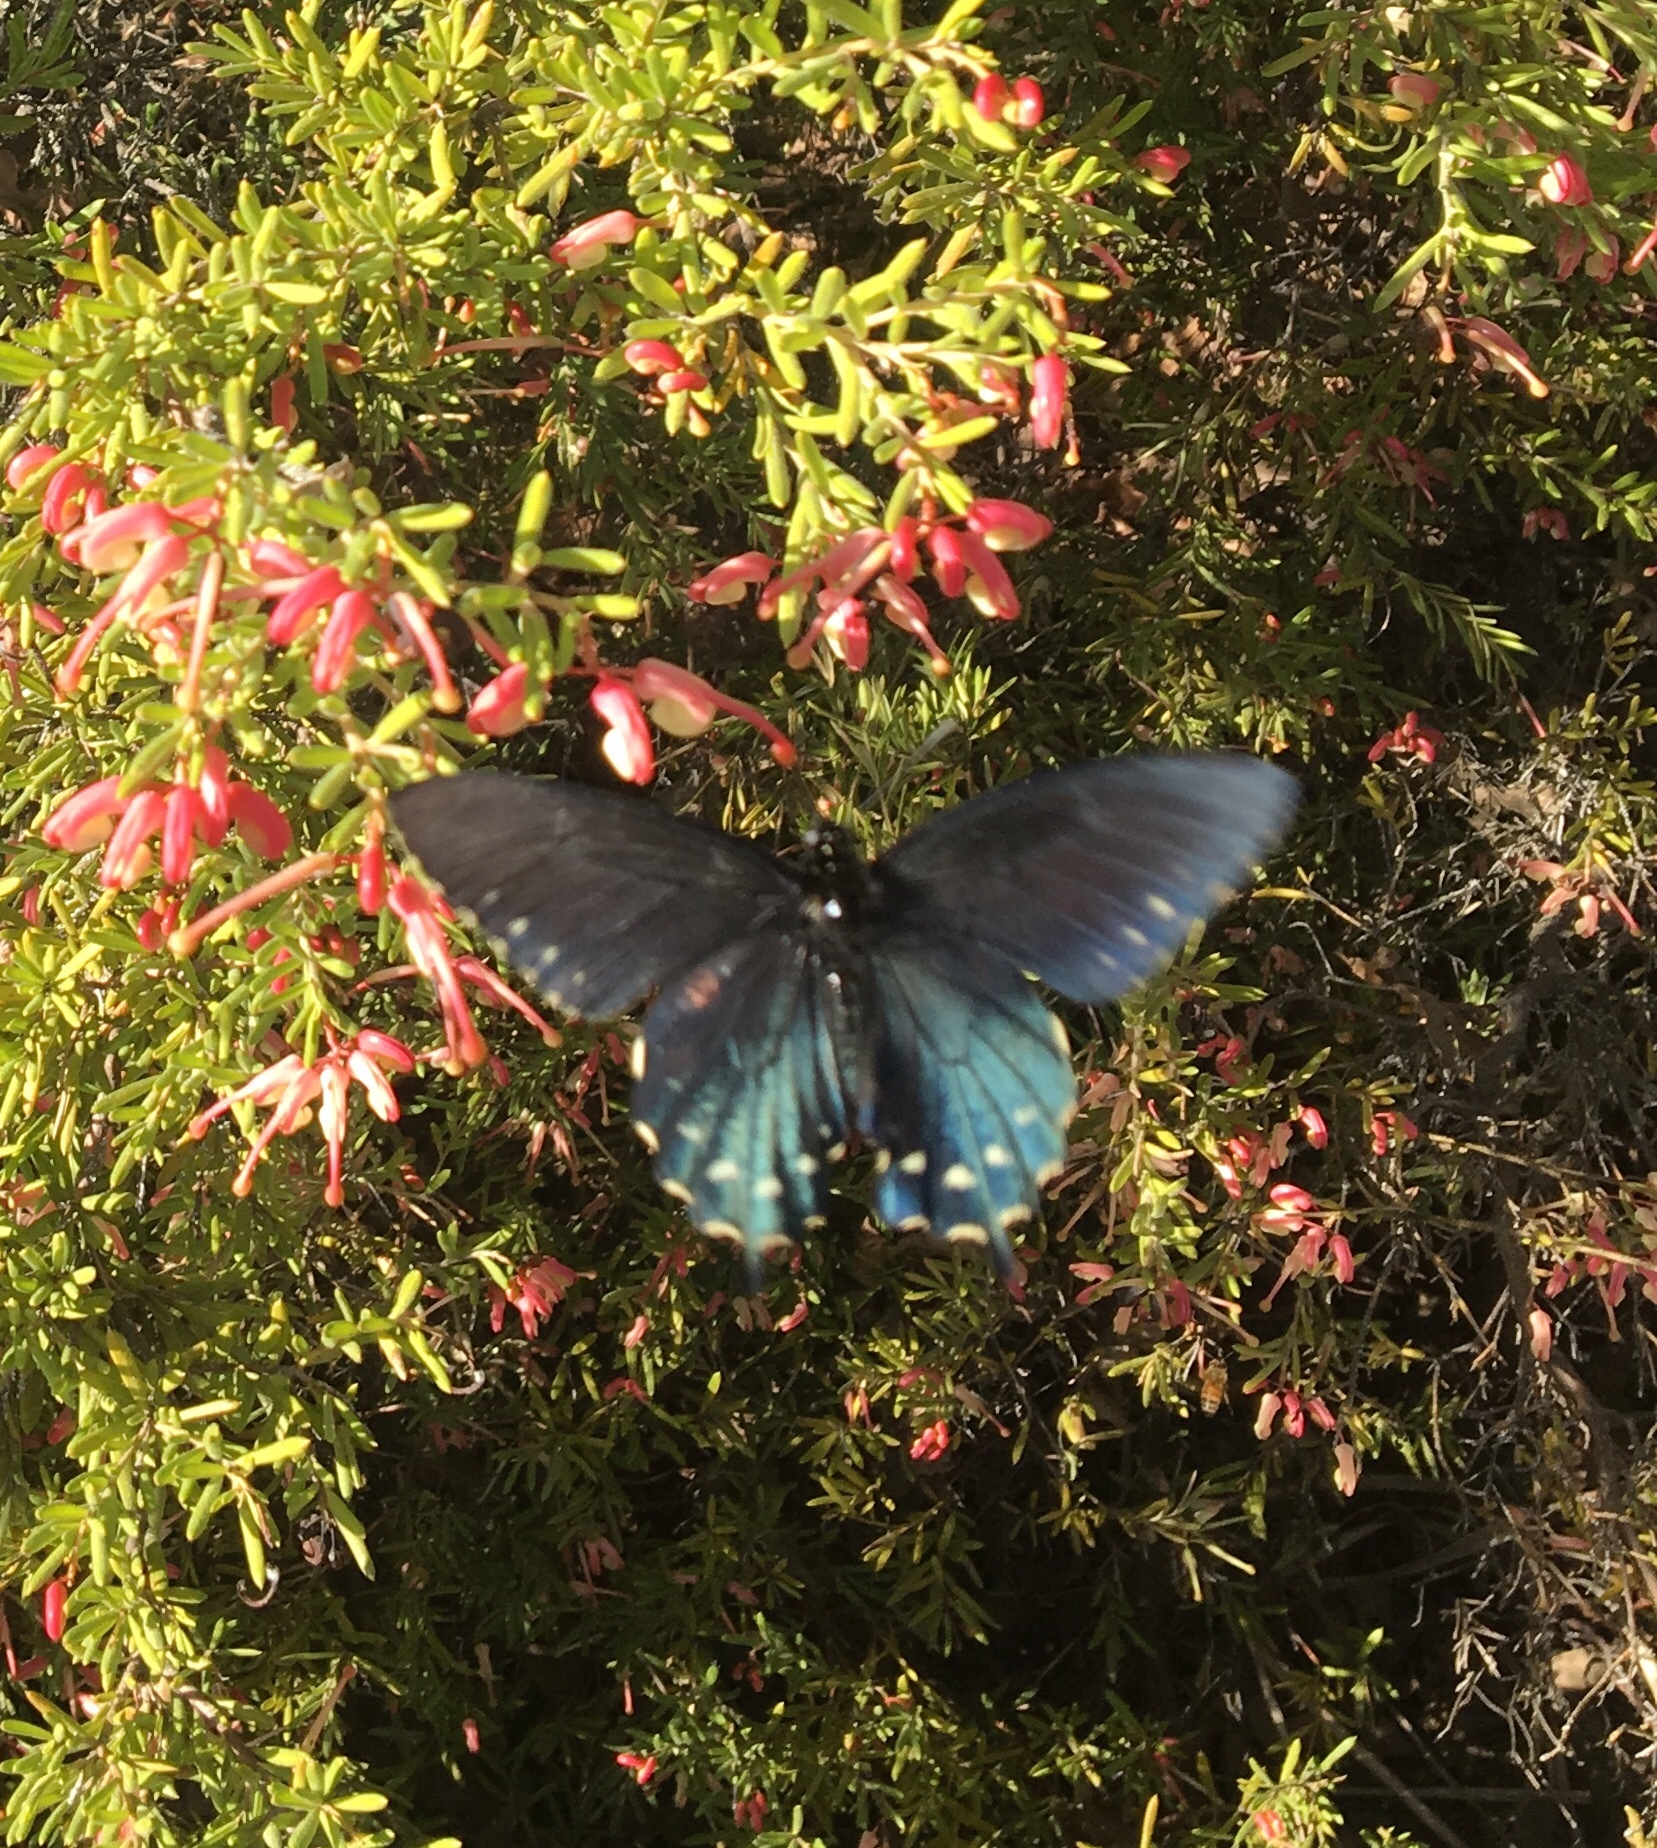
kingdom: Animalia
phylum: Arthropoda
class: Insecta
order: Lepidoptera
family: Papilionidae
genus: Battus
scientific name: Battus philenor
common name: Pipevine swallowtail
